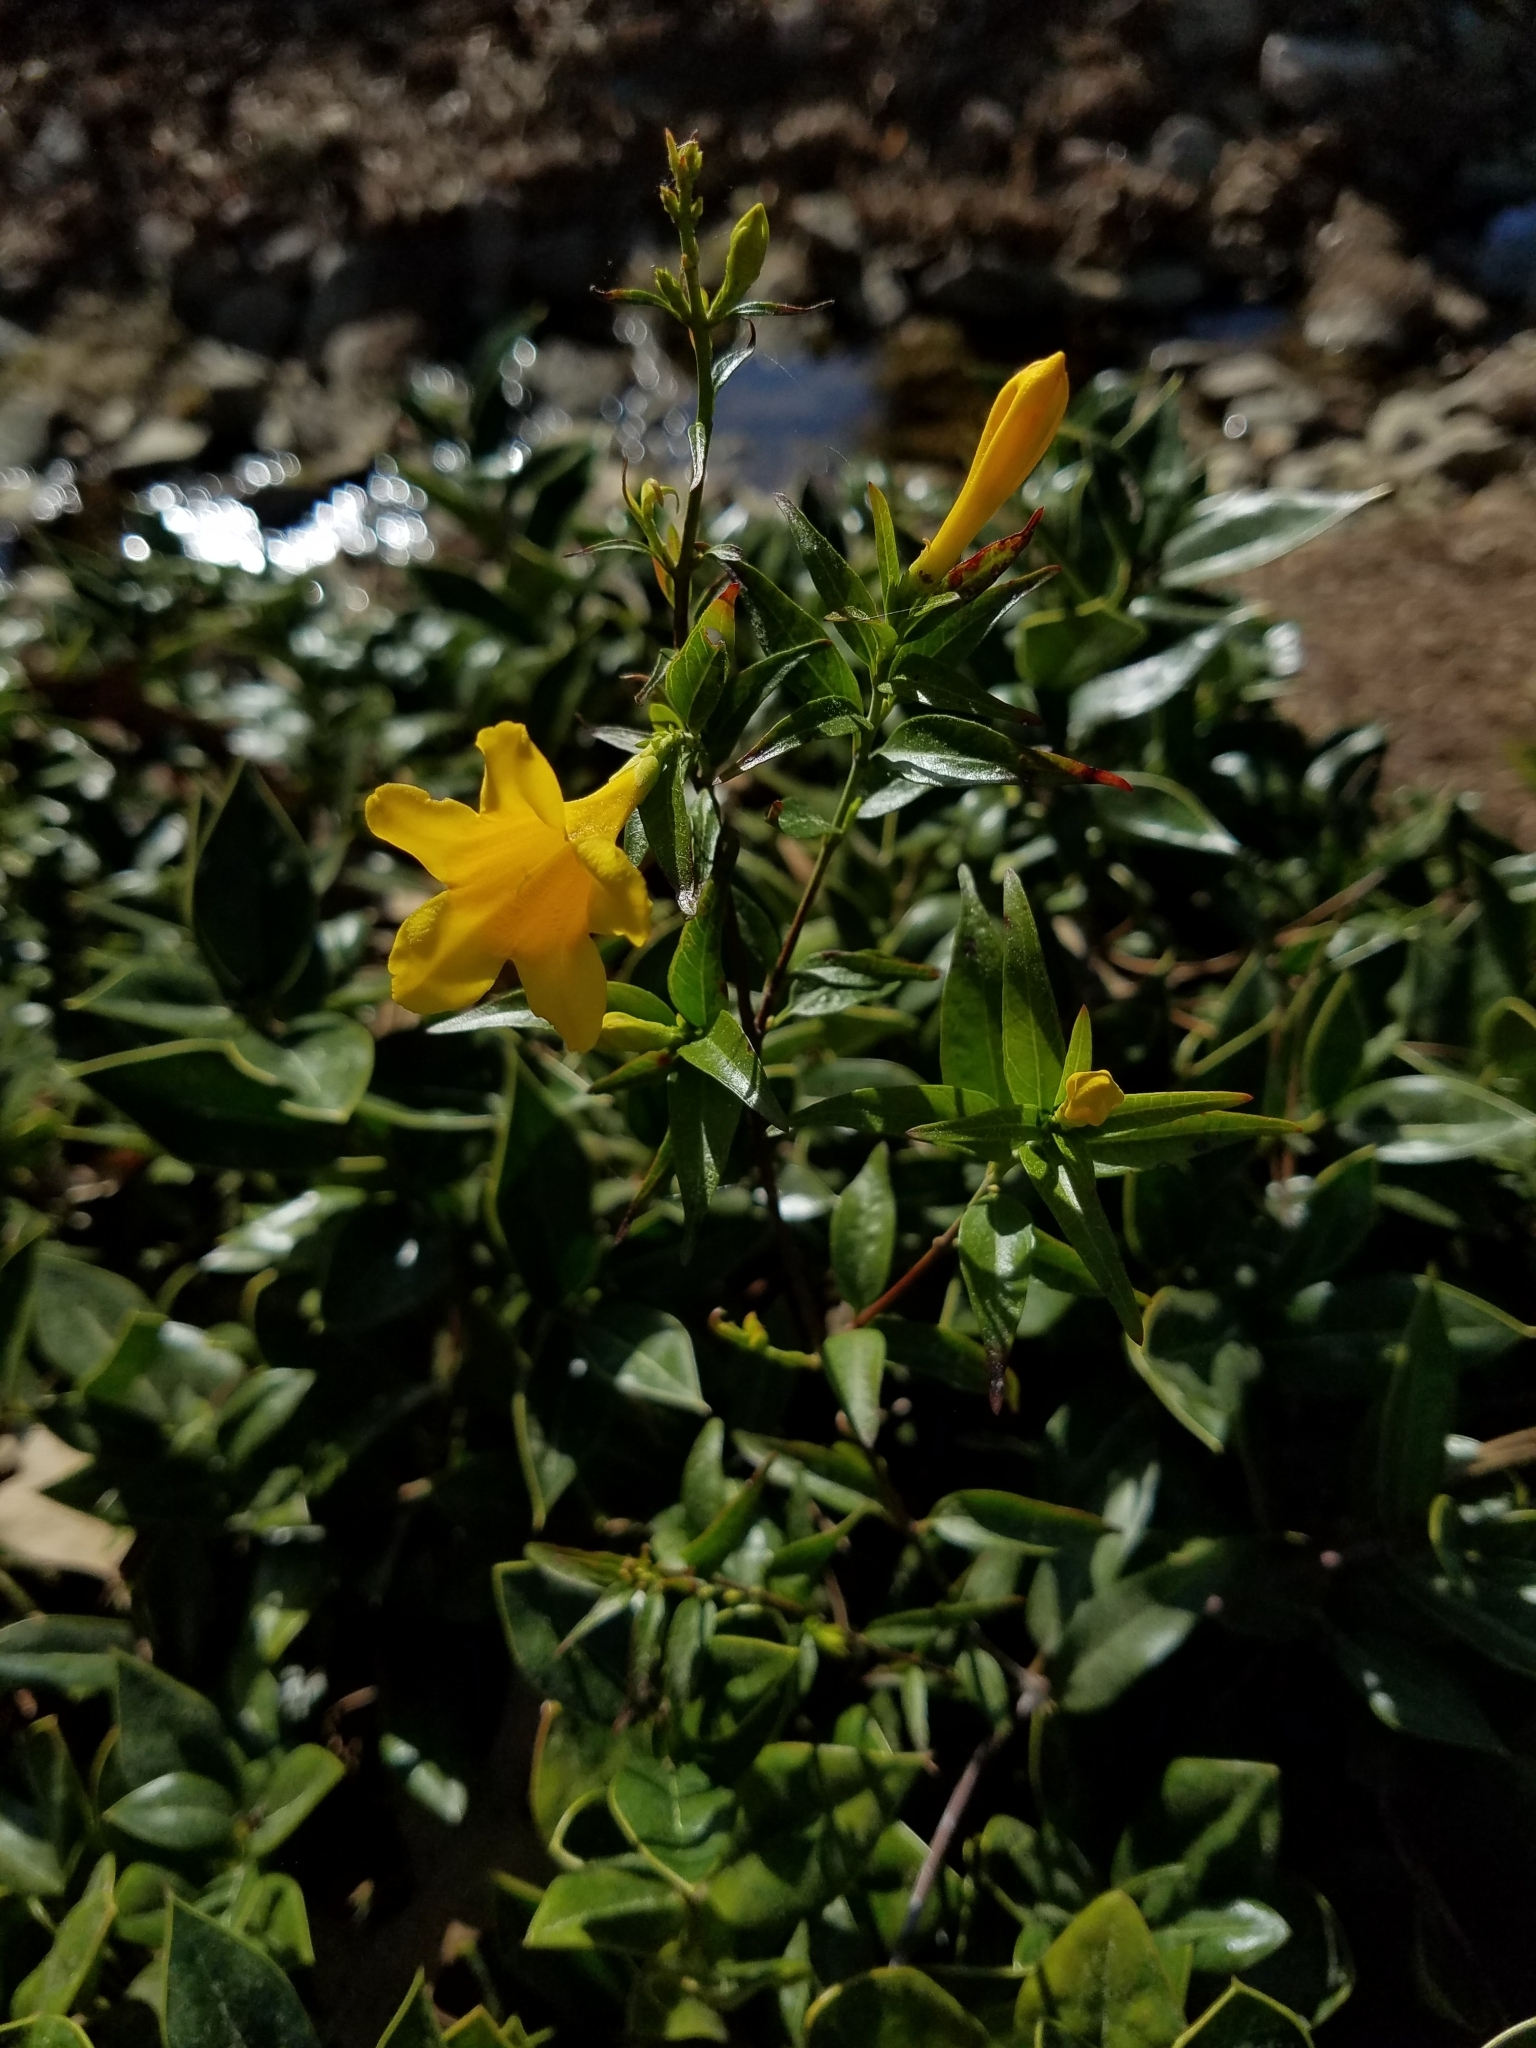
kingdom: Plantae
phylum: Tracheophyta
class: Magnoliopsida
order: Gentianales
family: Gelsemiaceae
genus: Gelsemium
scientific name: Gelsemium sempervirens
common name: Carolina-jasmine
